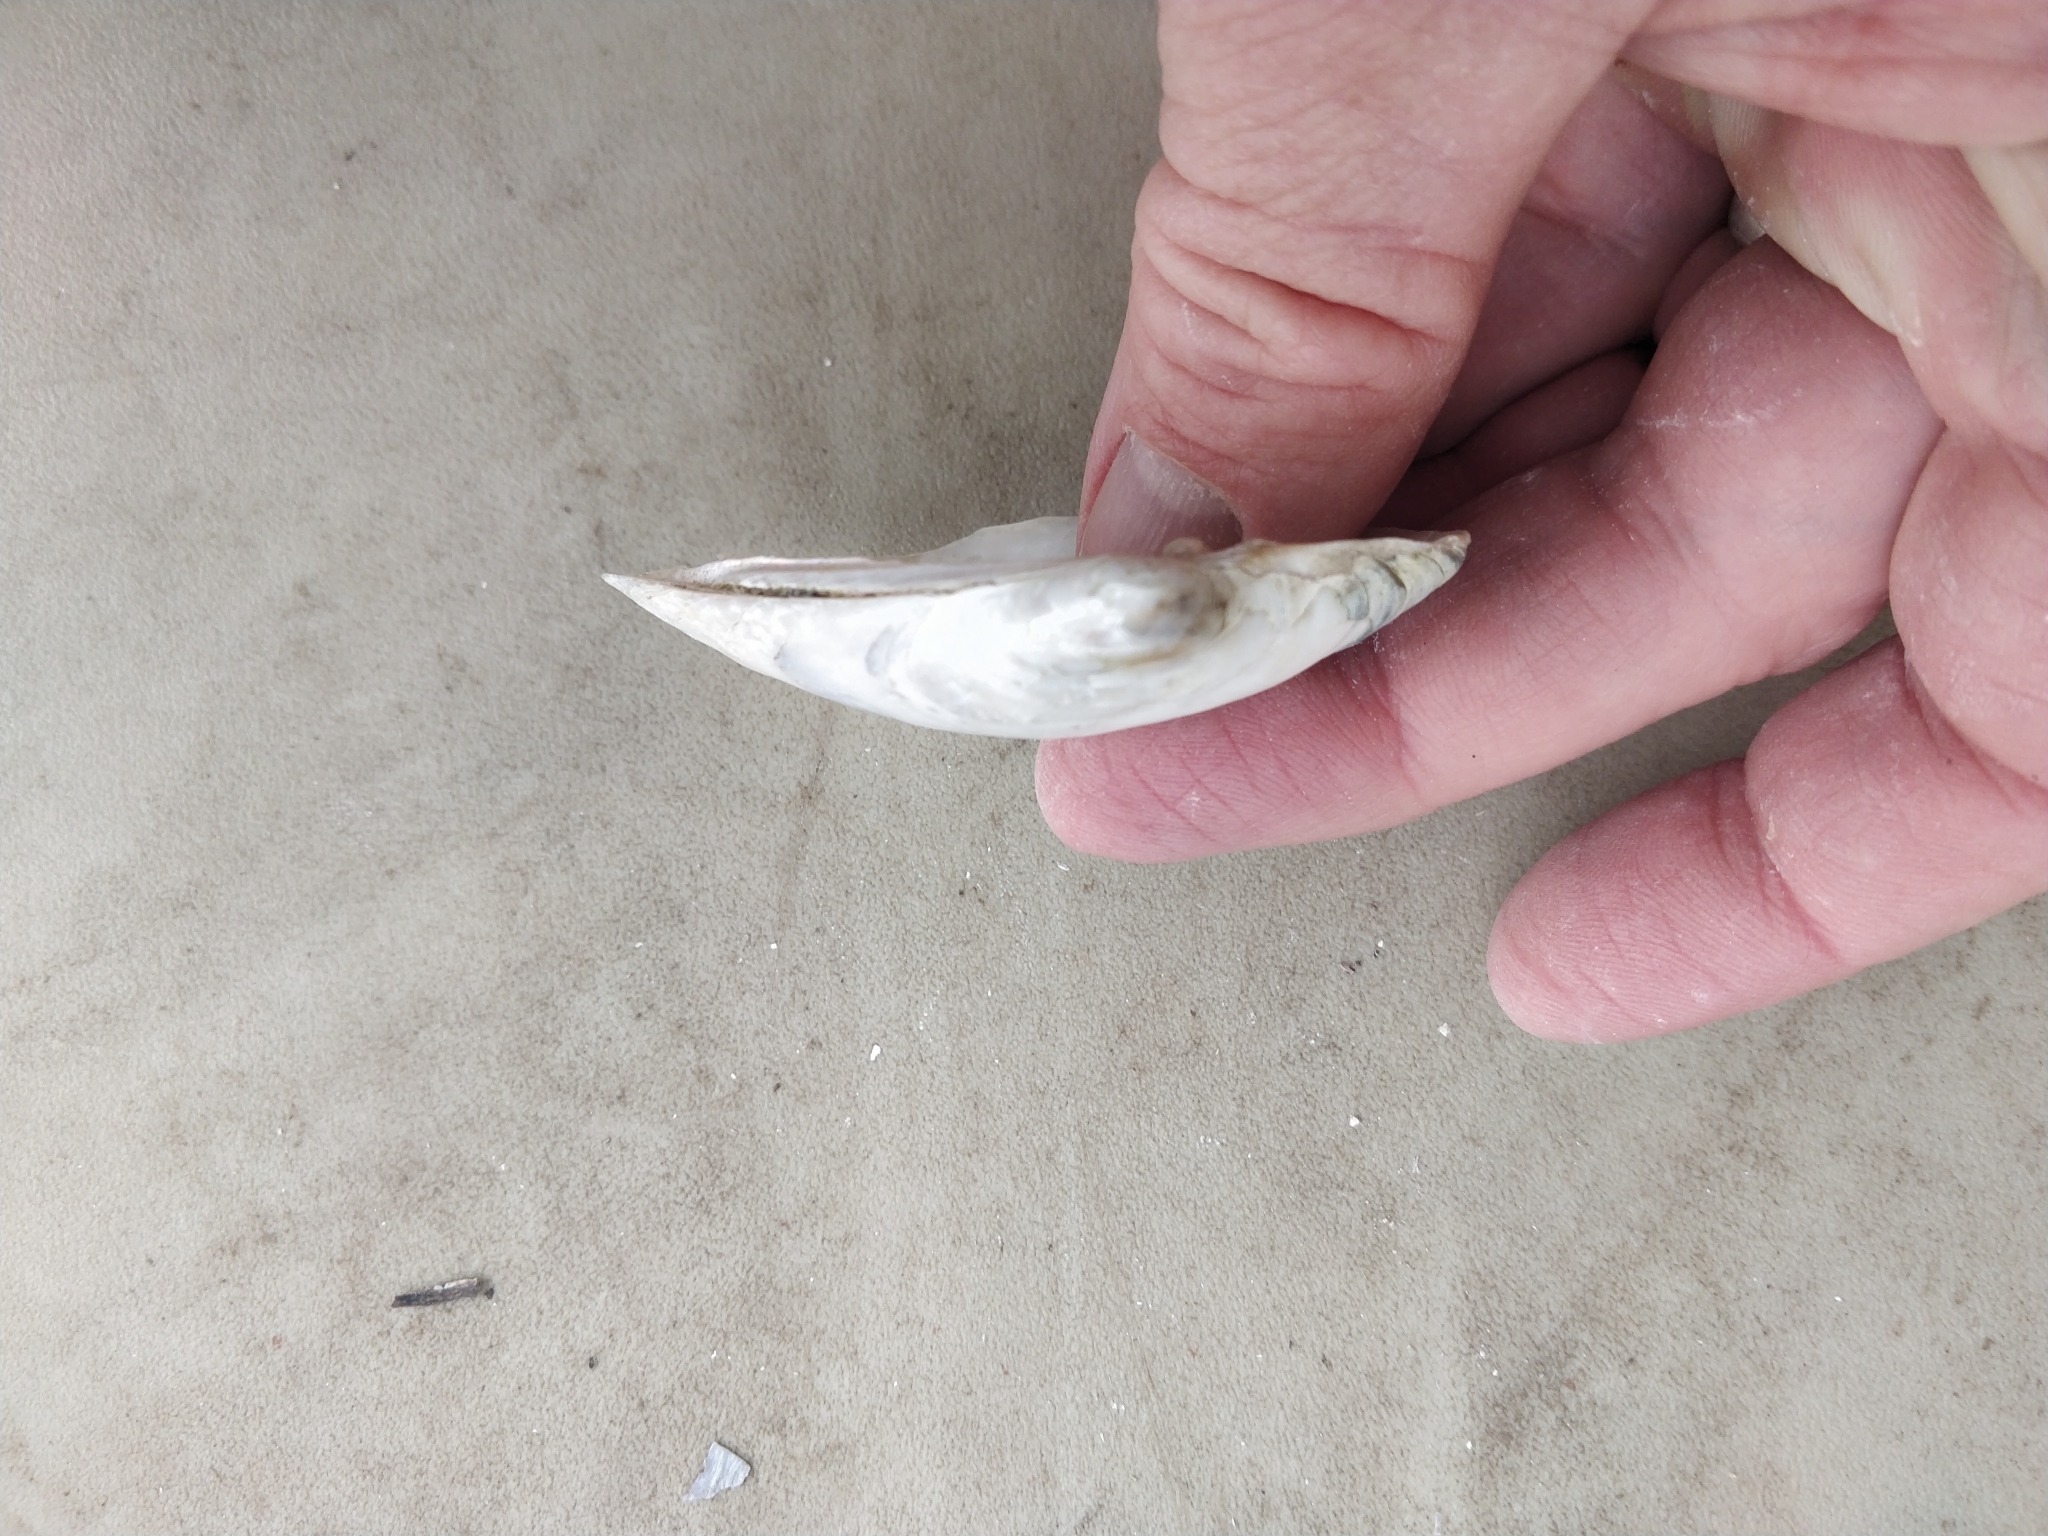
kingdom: Animalia
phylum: Mollusca
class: Bivalvia
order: Unionida
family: Unionidae
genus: Lampsilis
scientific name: Lampsilis siliquoidea
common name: Fatmucket
